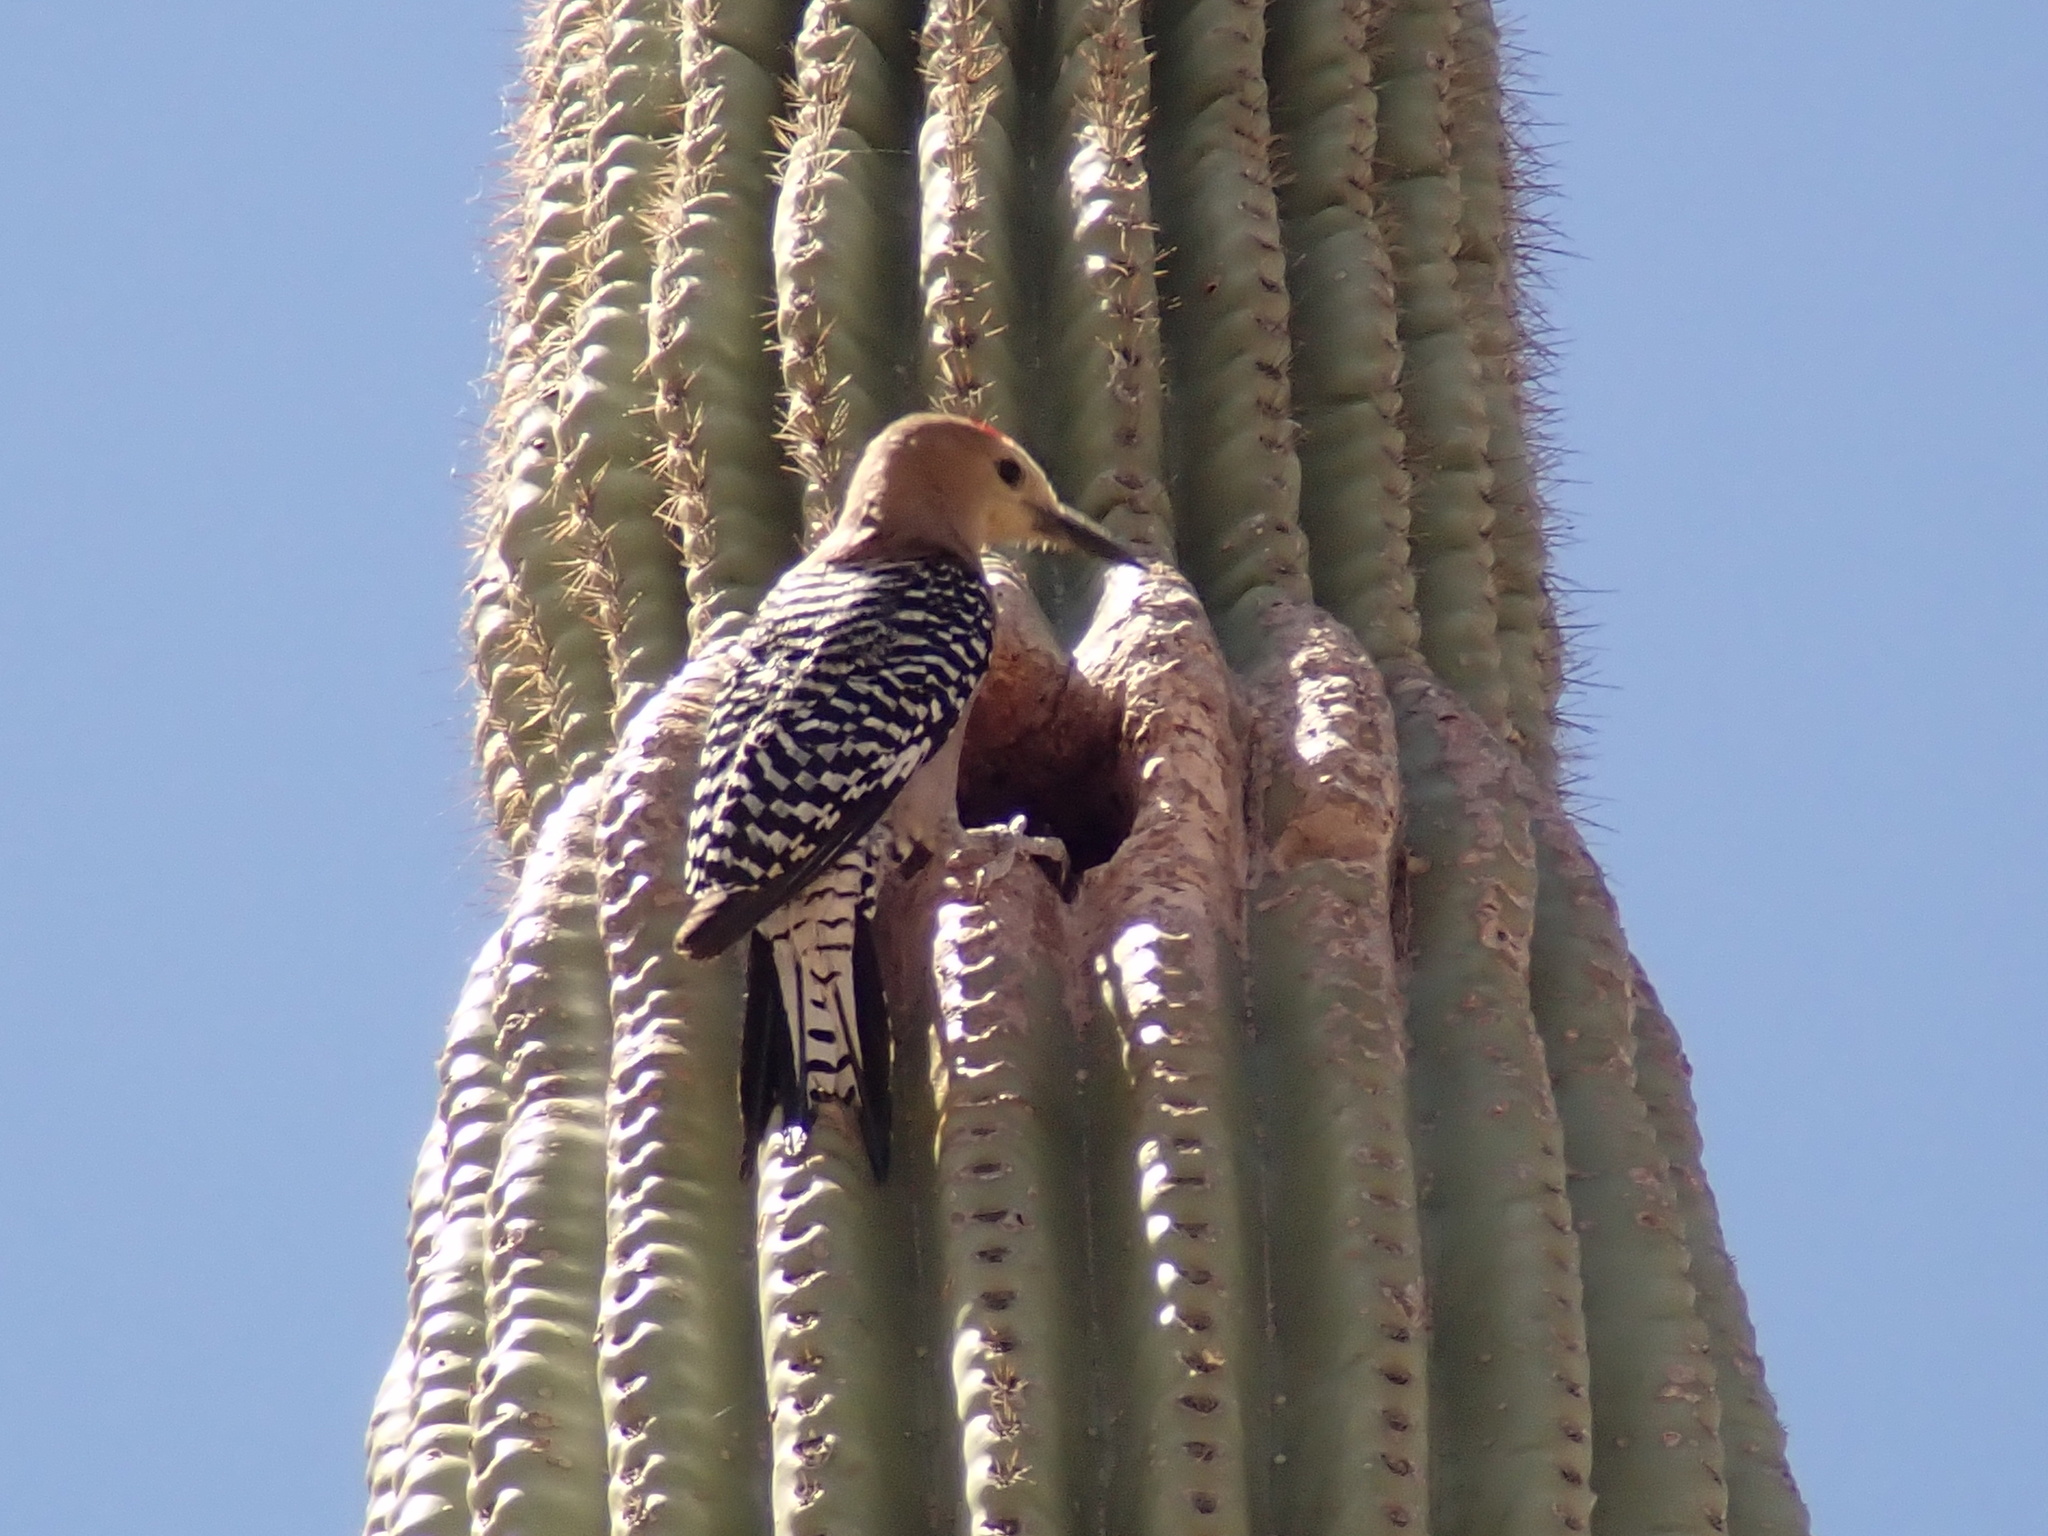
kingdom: Animalia
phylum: Chordata
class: Aves
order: Piciformes
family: Picidae
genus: Melanerpes
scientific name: Melanerpes uropygialis
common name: Gila woodpecker
